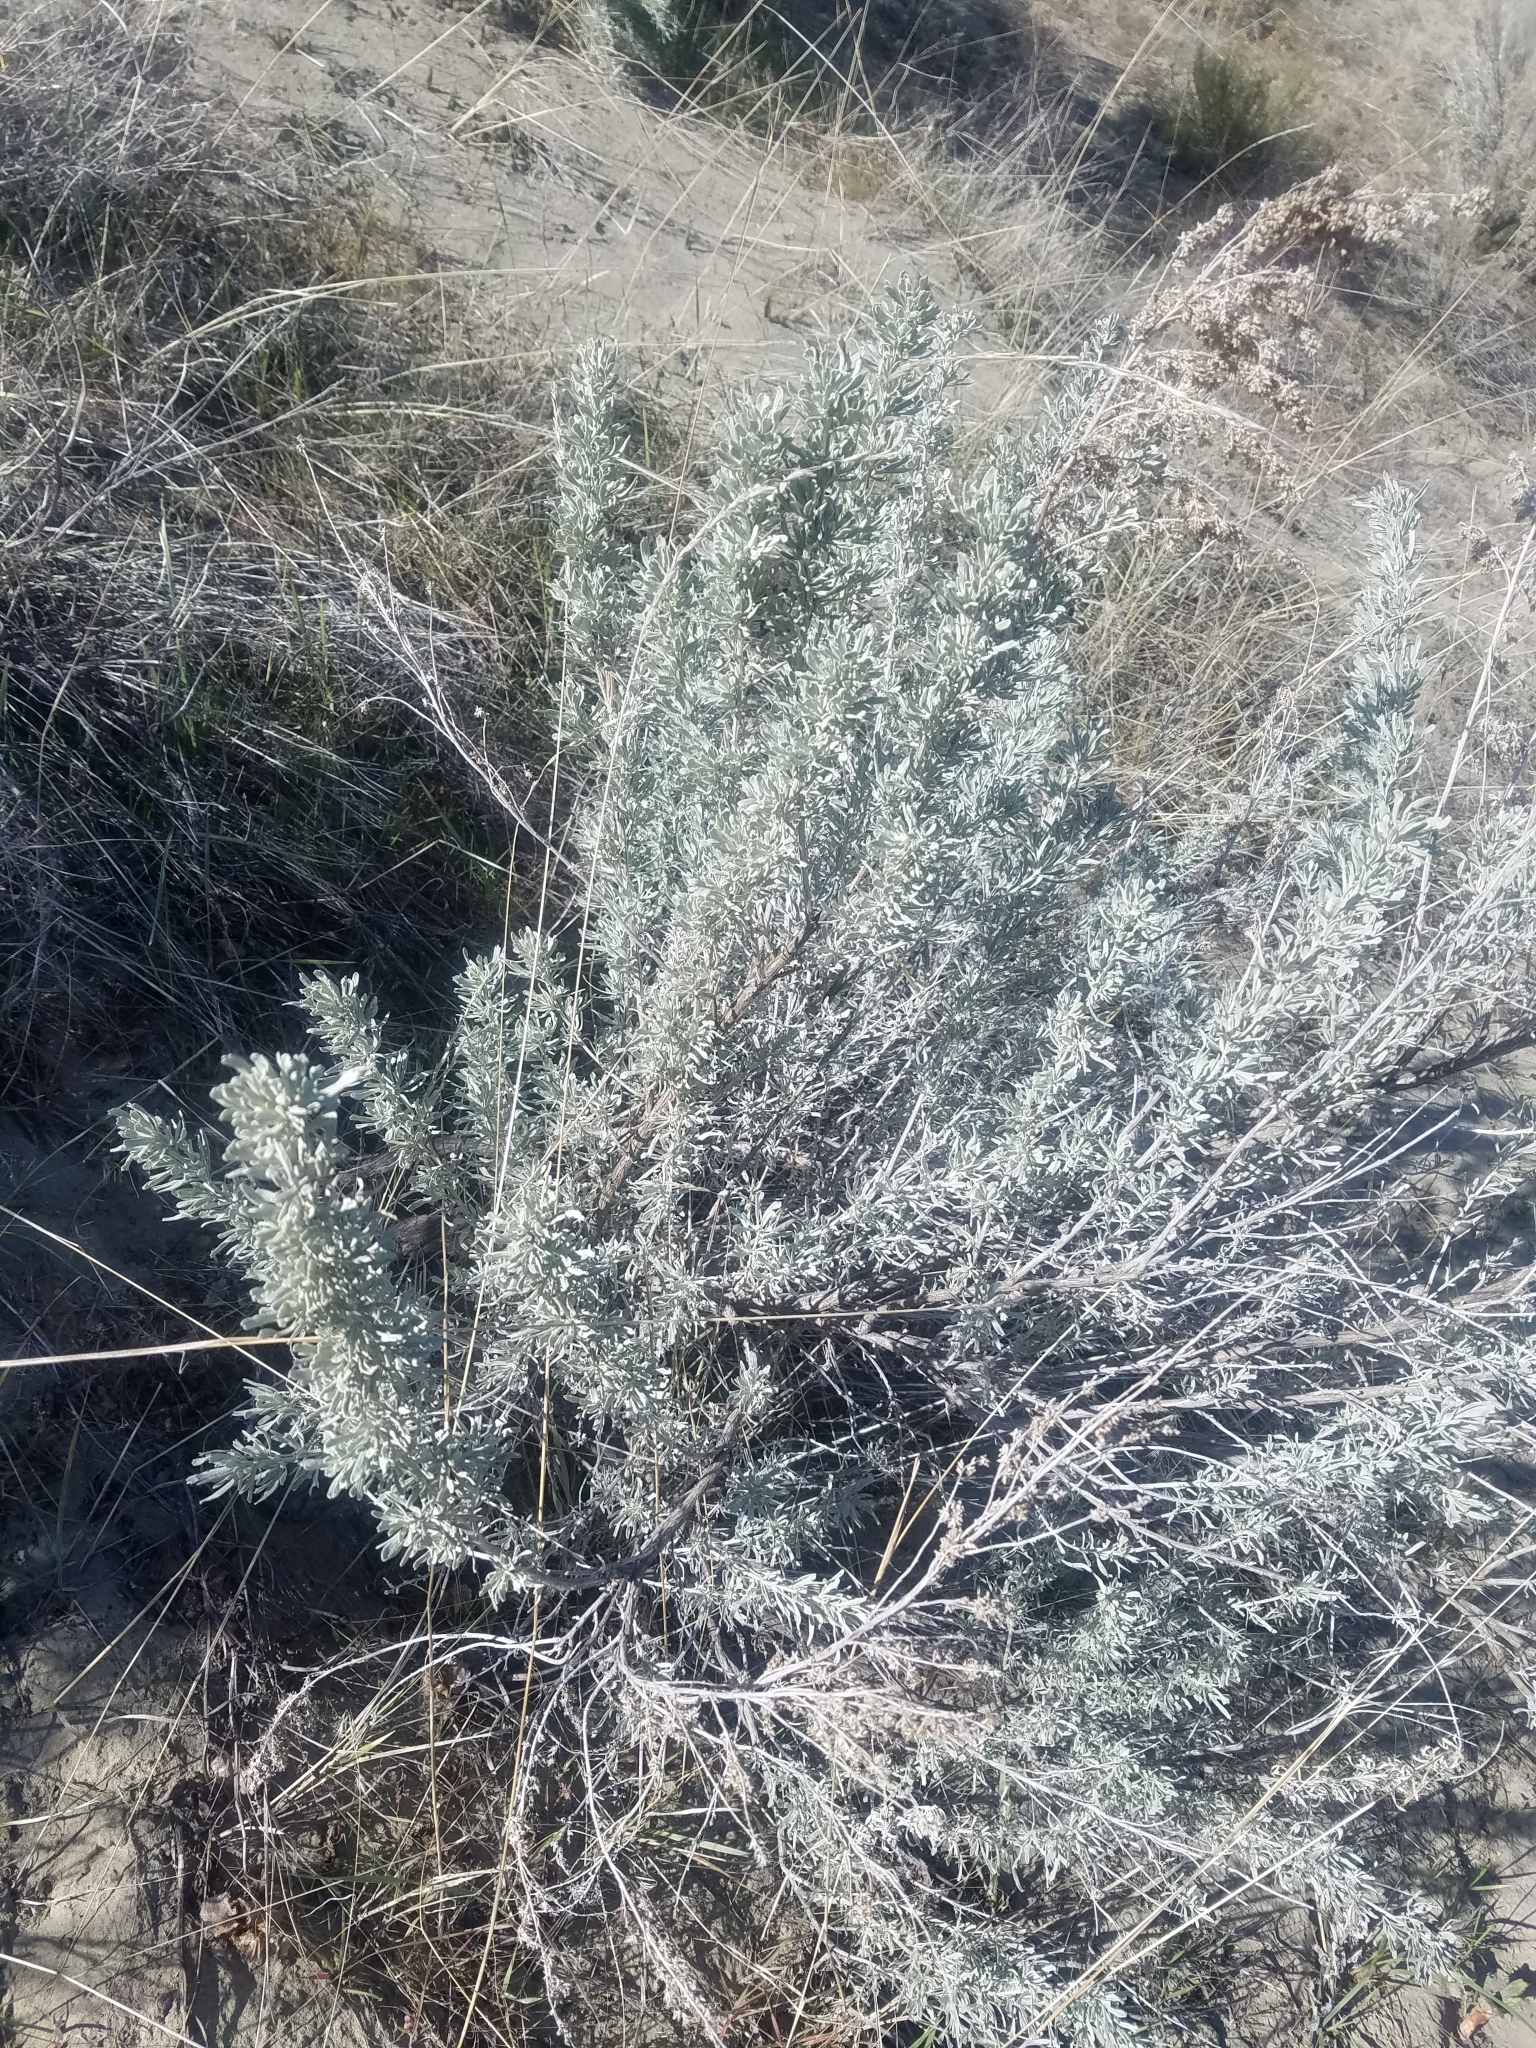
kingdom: Plantae
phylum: Tracheophyta
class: Magnoliopsida
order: Asterales
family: Asteraceae
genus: Artemisia
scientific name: Artemisia tridentata
